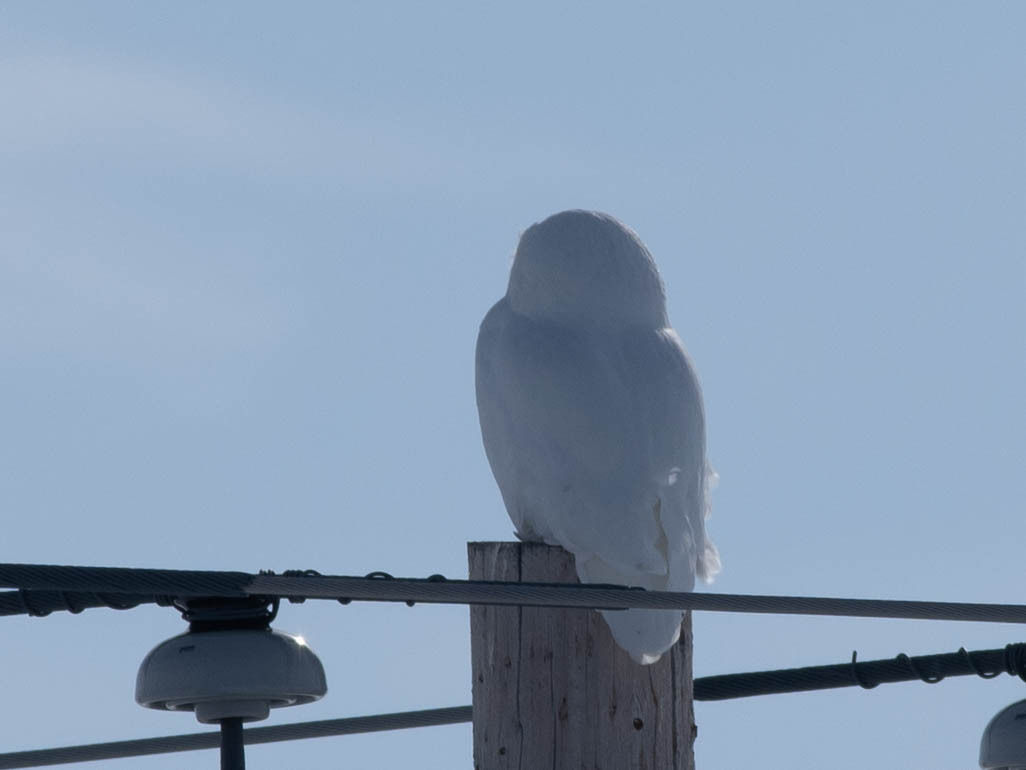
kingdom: Animalia
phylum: Chordata
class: Aves
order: Strigiformes
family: Strigidae
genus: Bubo
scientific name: Bubo scandiacus
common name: Snowy owl
